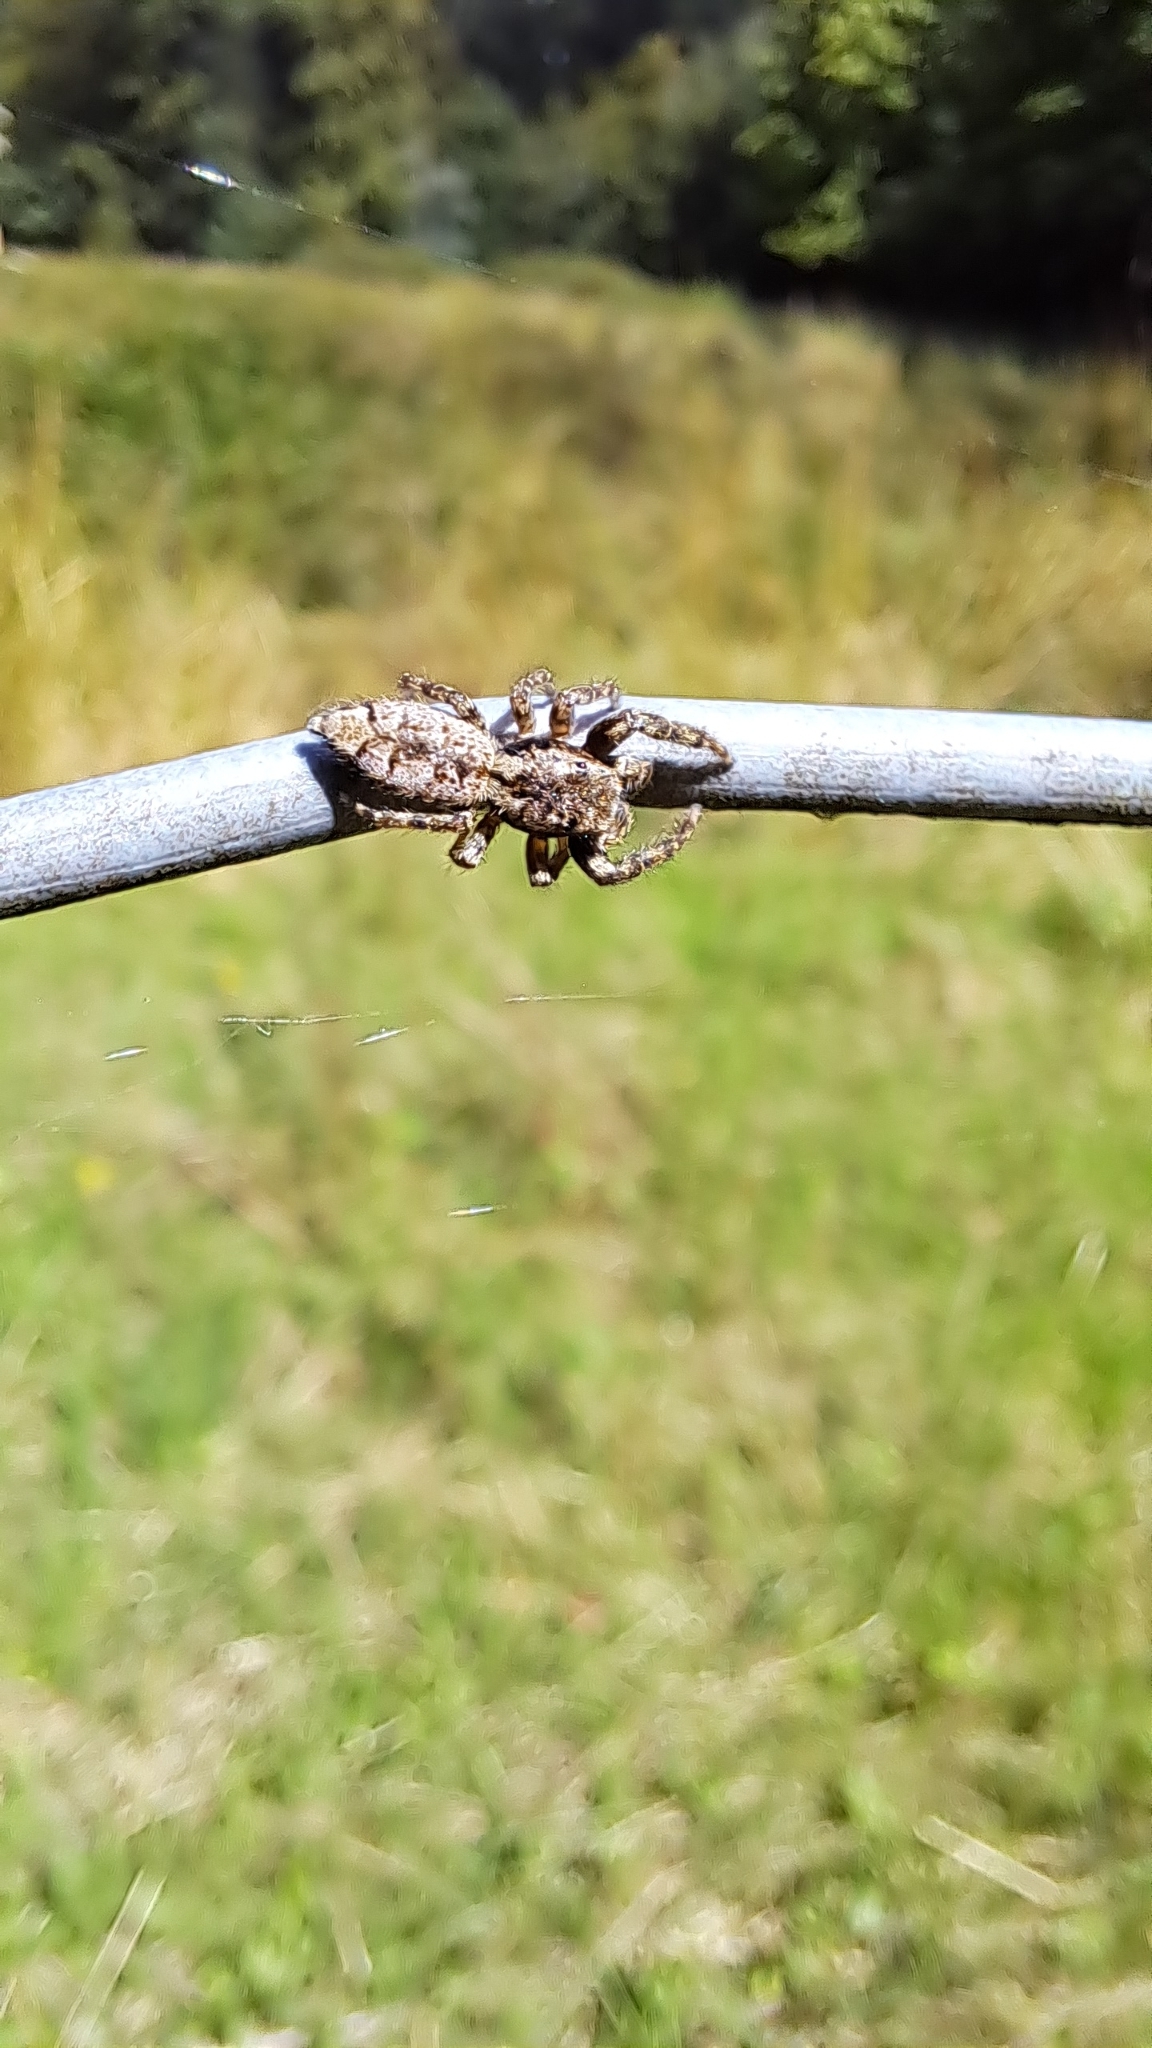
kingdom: Animalia
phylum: Arthropoda
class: Arachnida
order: Araneae
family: Salticidae
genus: Marpissa
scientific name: Marpissa muscosa
